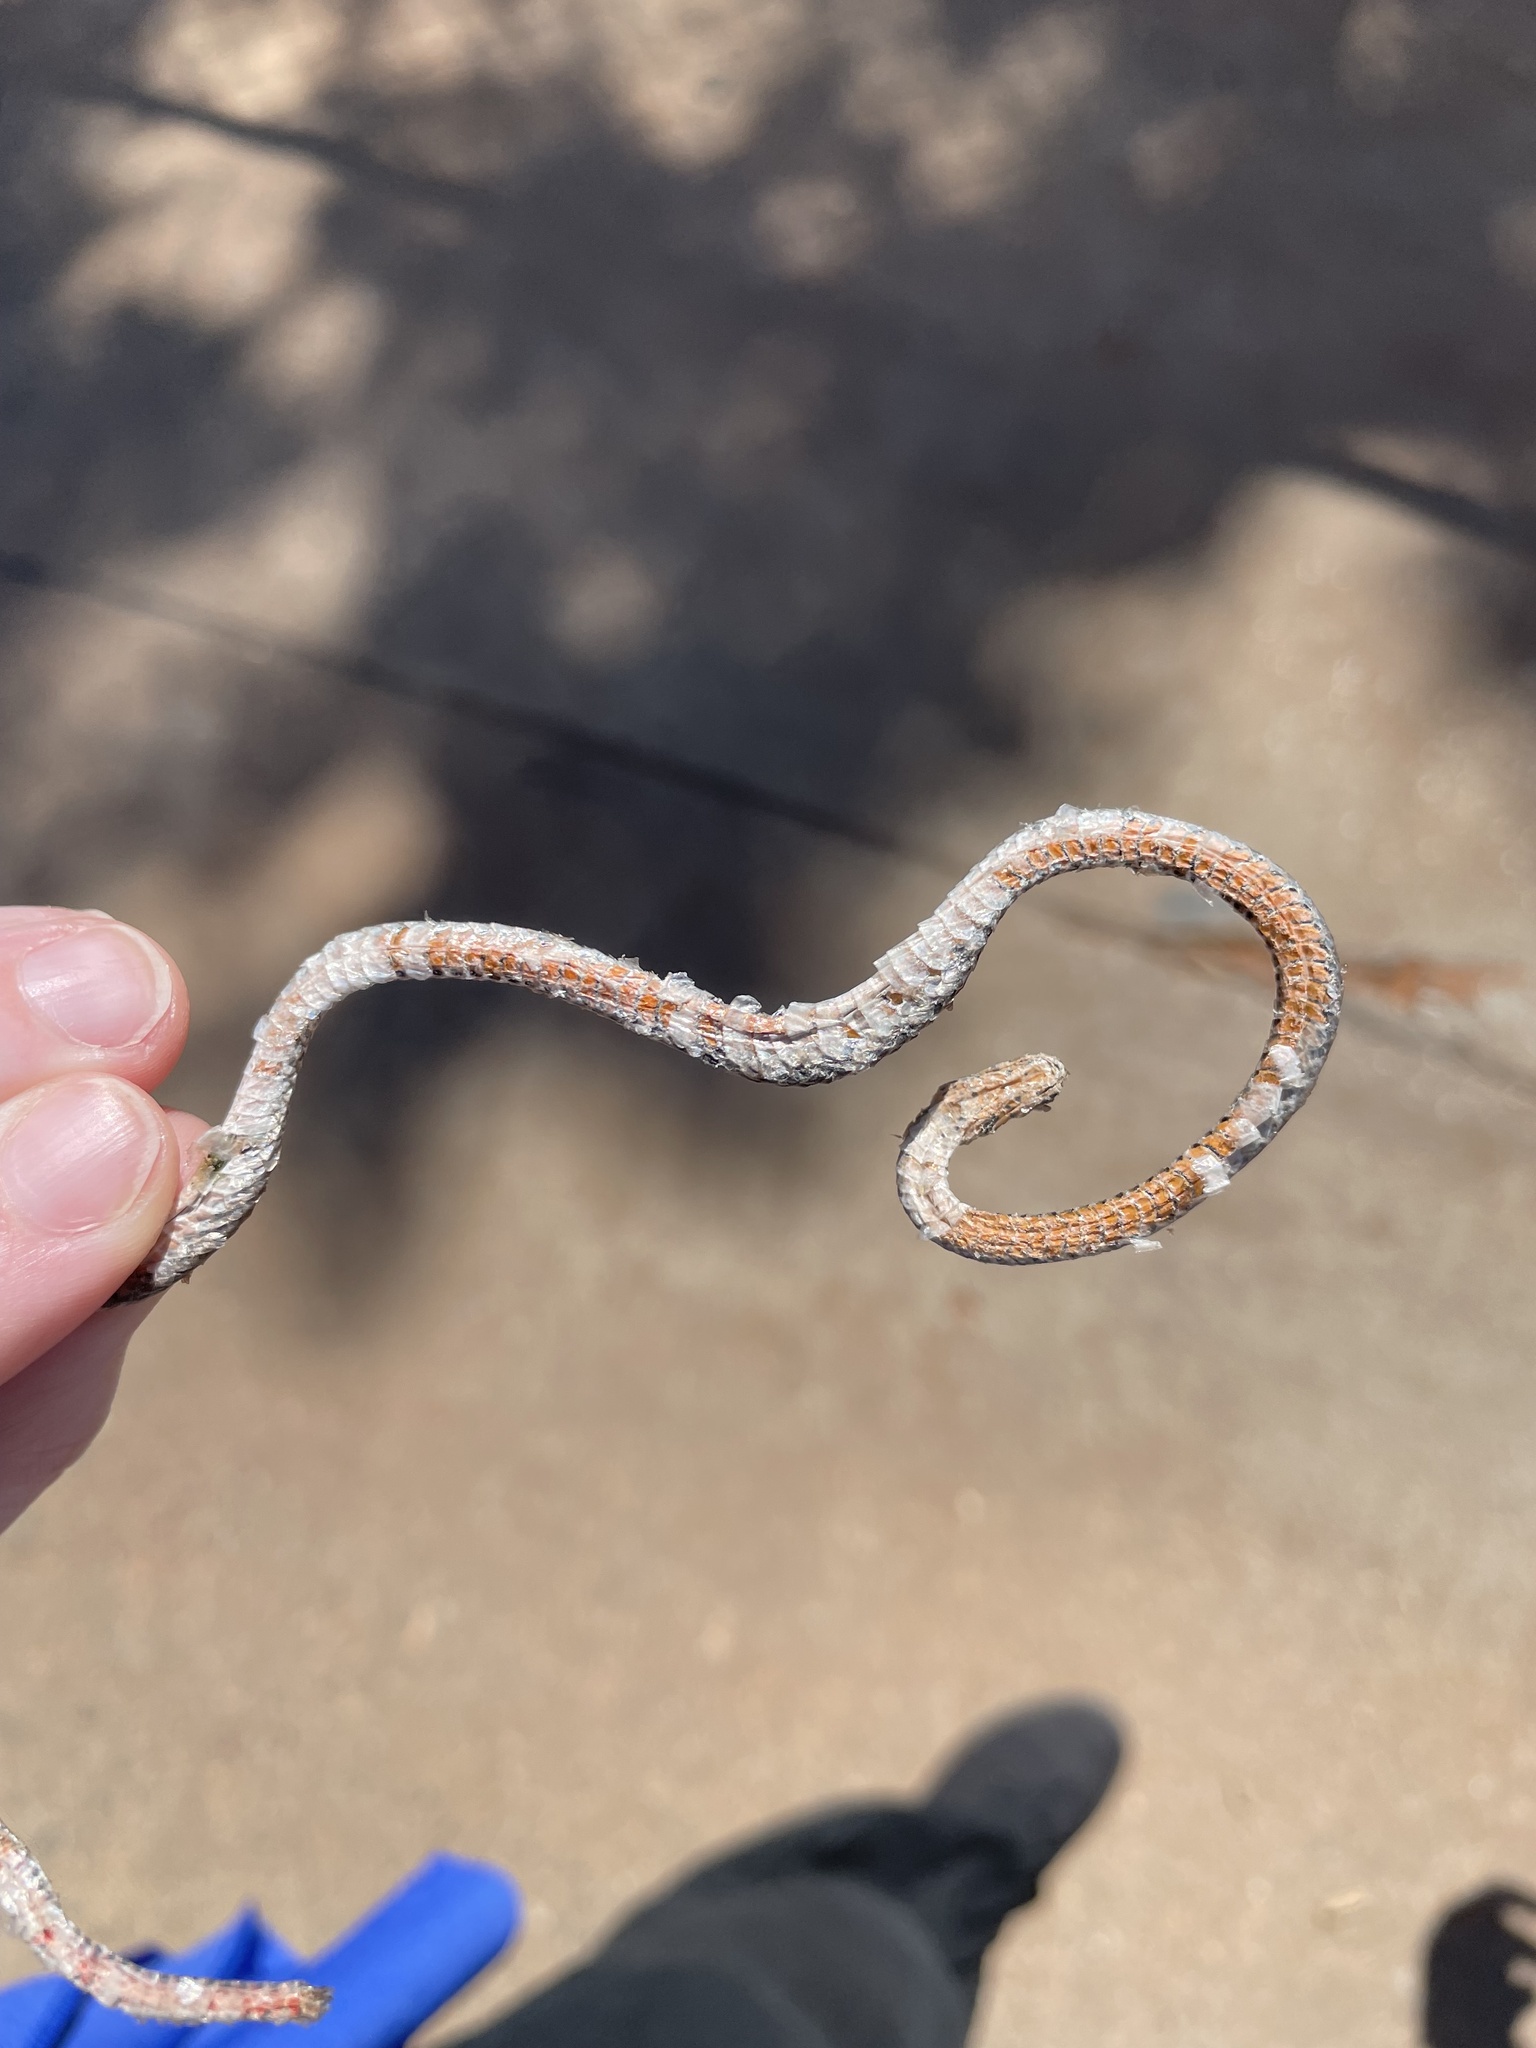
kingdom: Animalia
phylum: Chordata
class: Squamata
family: Colubridae
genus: Diadophis
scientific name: Diadophis punctatus
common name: Ringneck snake
